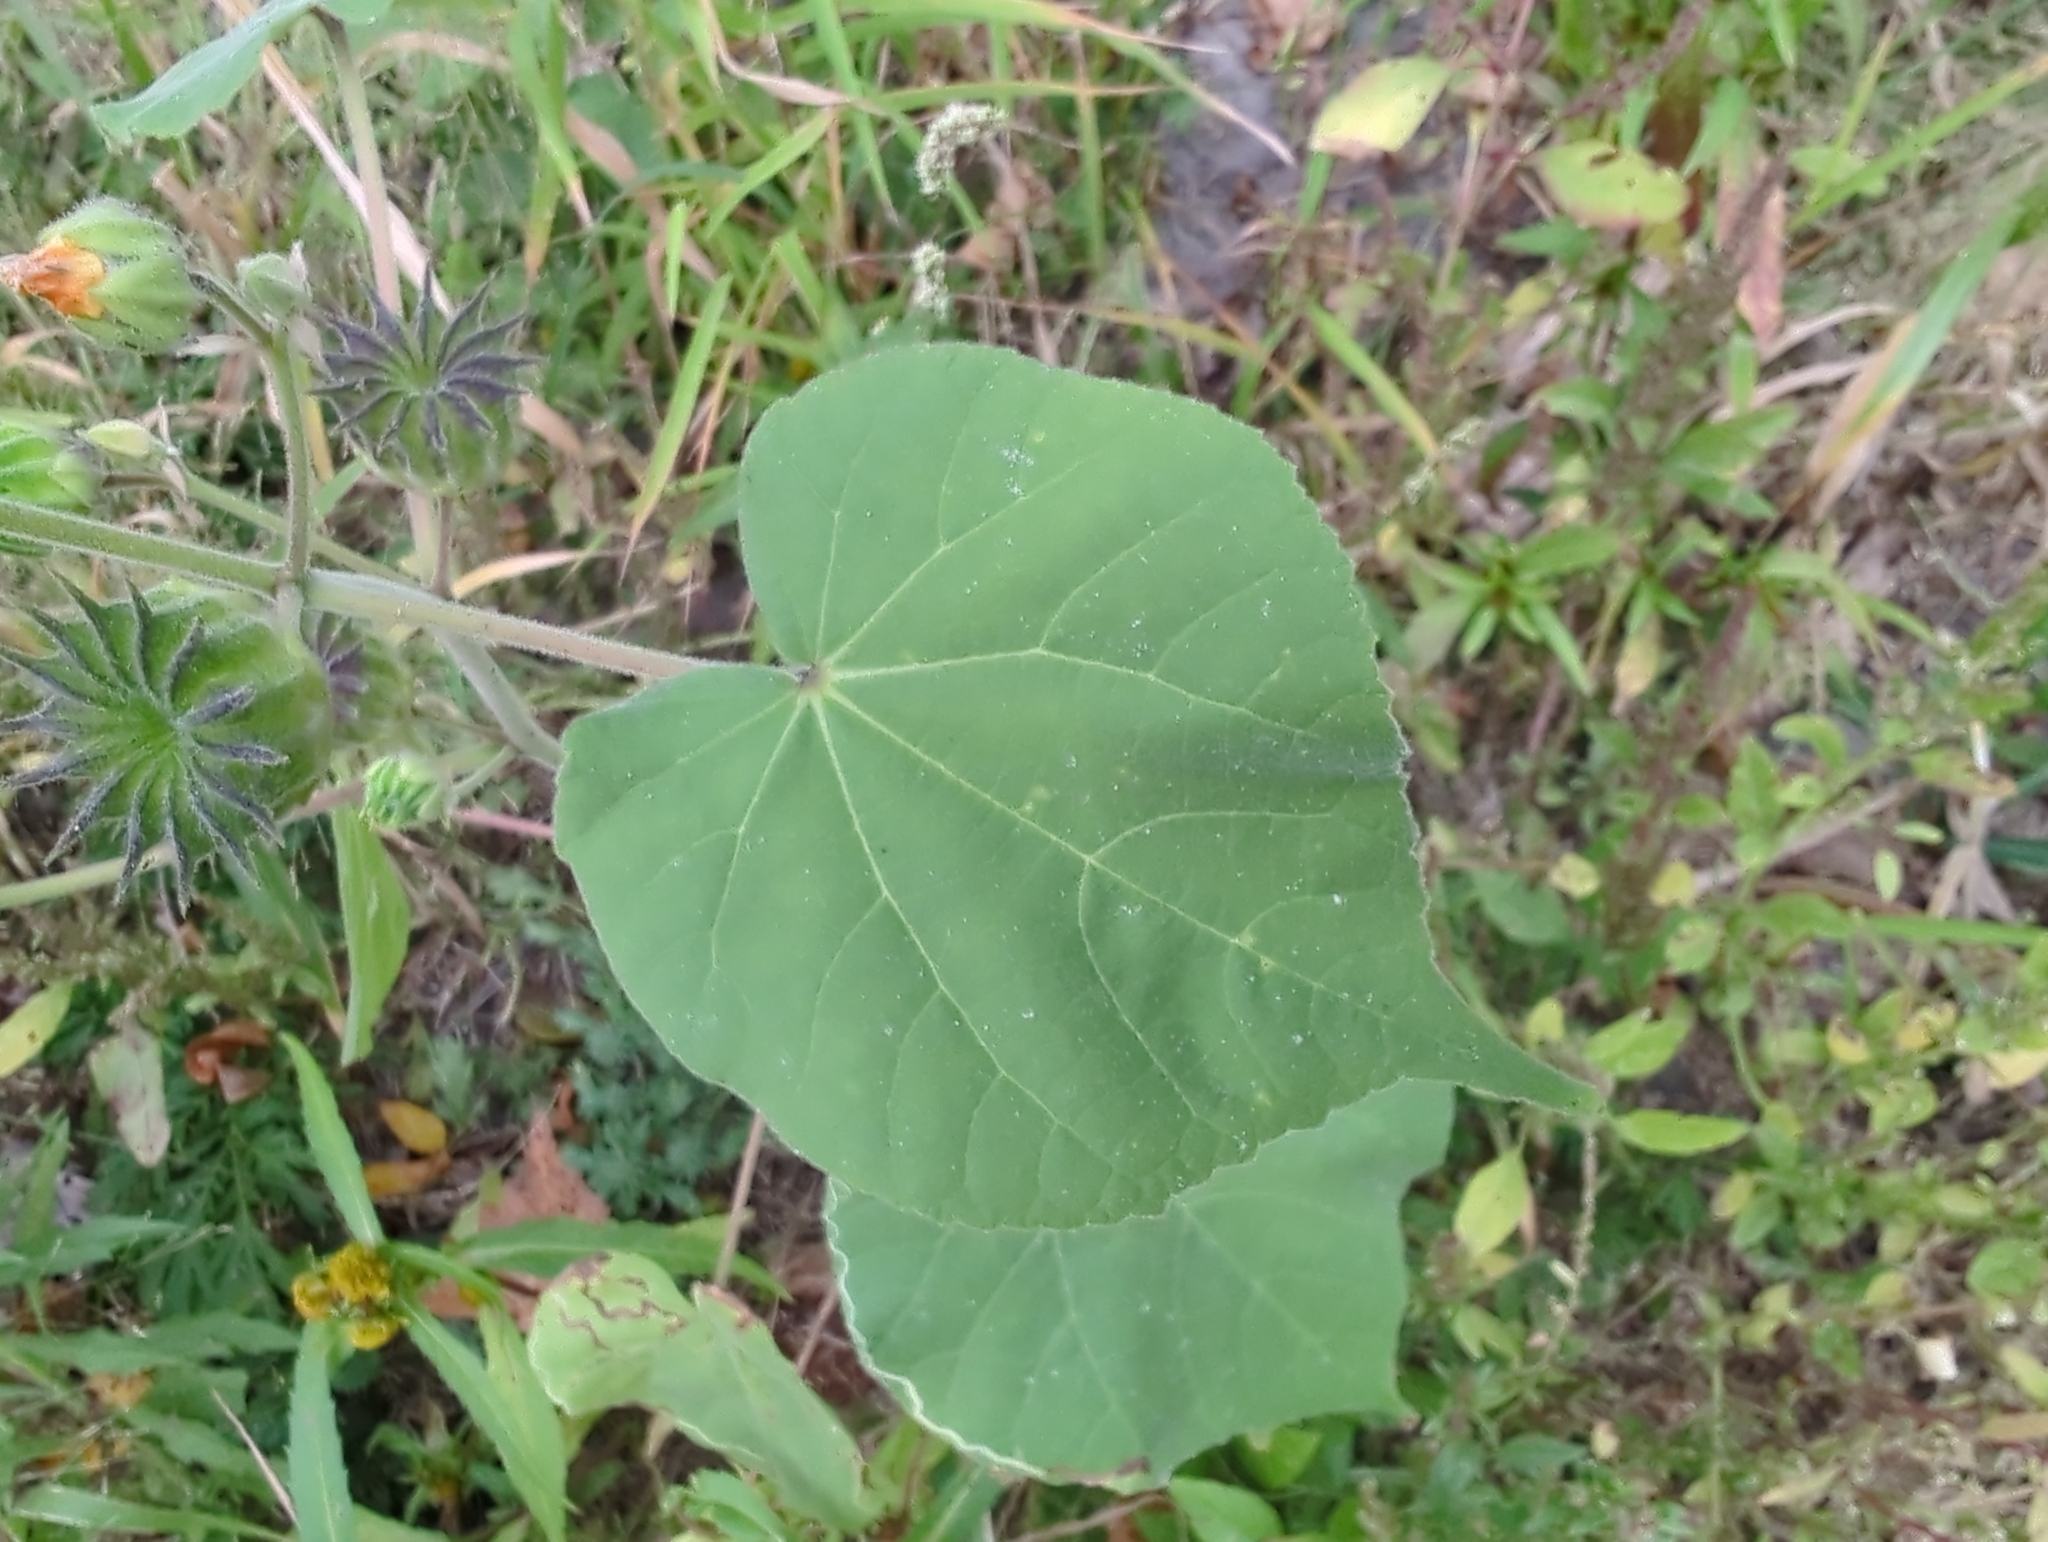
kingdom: Plantae
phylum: Tracheophyta
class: Magnoliopsida
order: Malvales
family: Malvaceae
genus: Abutilon
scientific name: Abutilon theophrasti
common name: Velvetleaf
